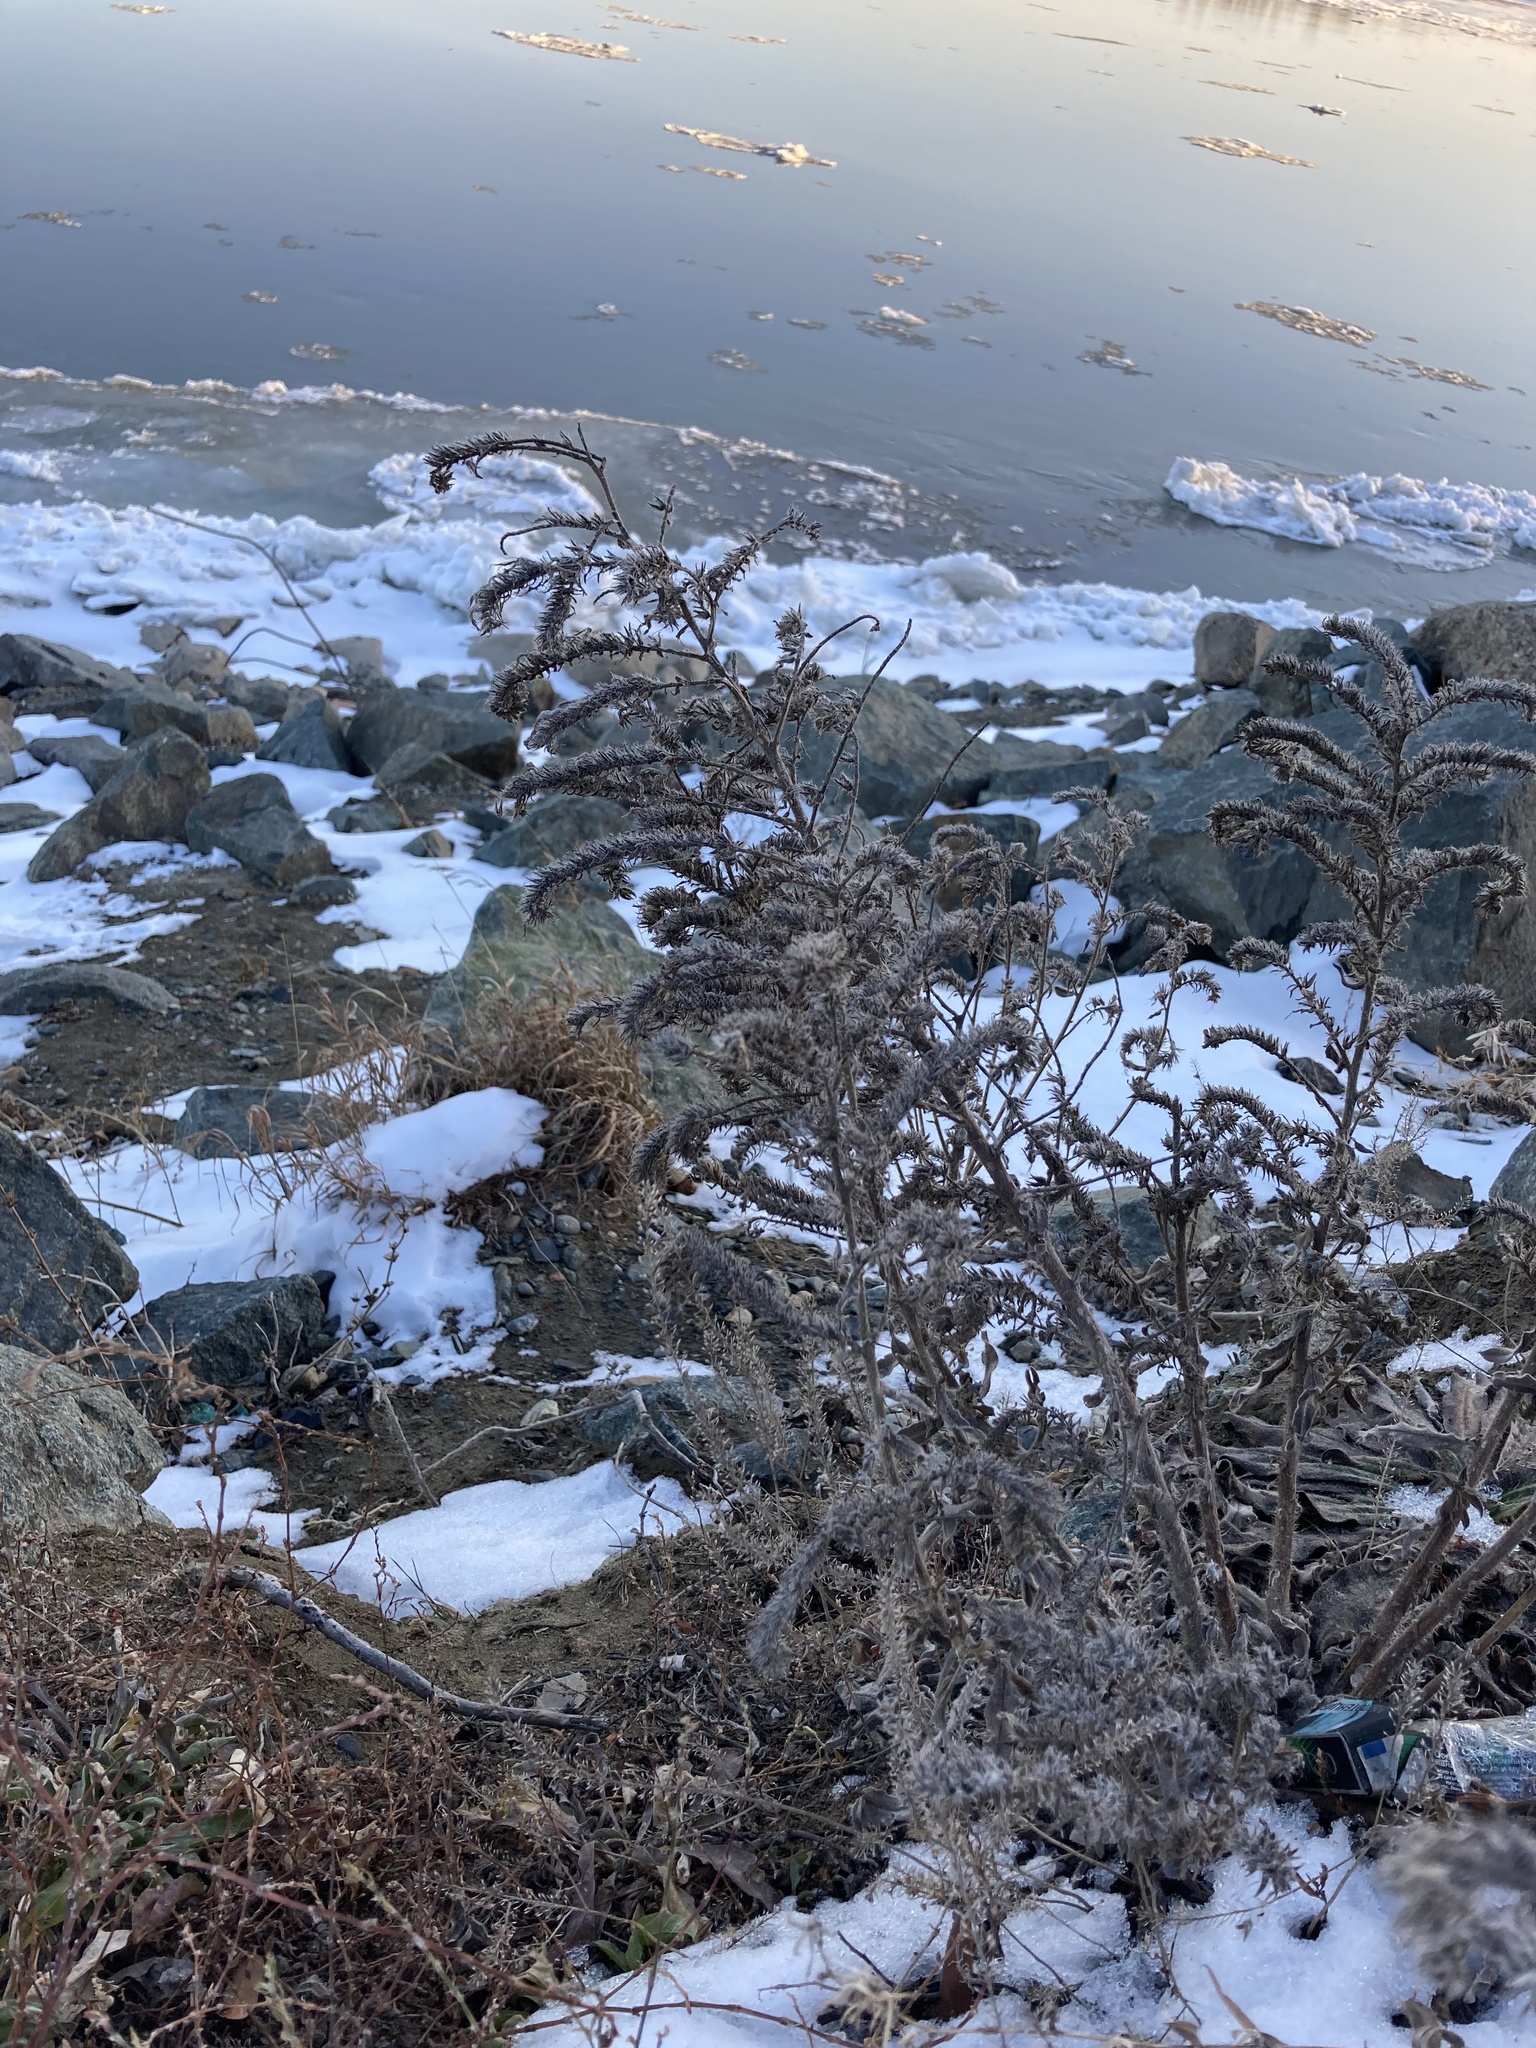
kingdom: Plantae
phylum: Tracheophyta
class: Magnoliopsida
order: Boraginales
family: Boraginaceae
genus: Echium
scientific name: Echium vulgare
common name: Common viper's bugloss
